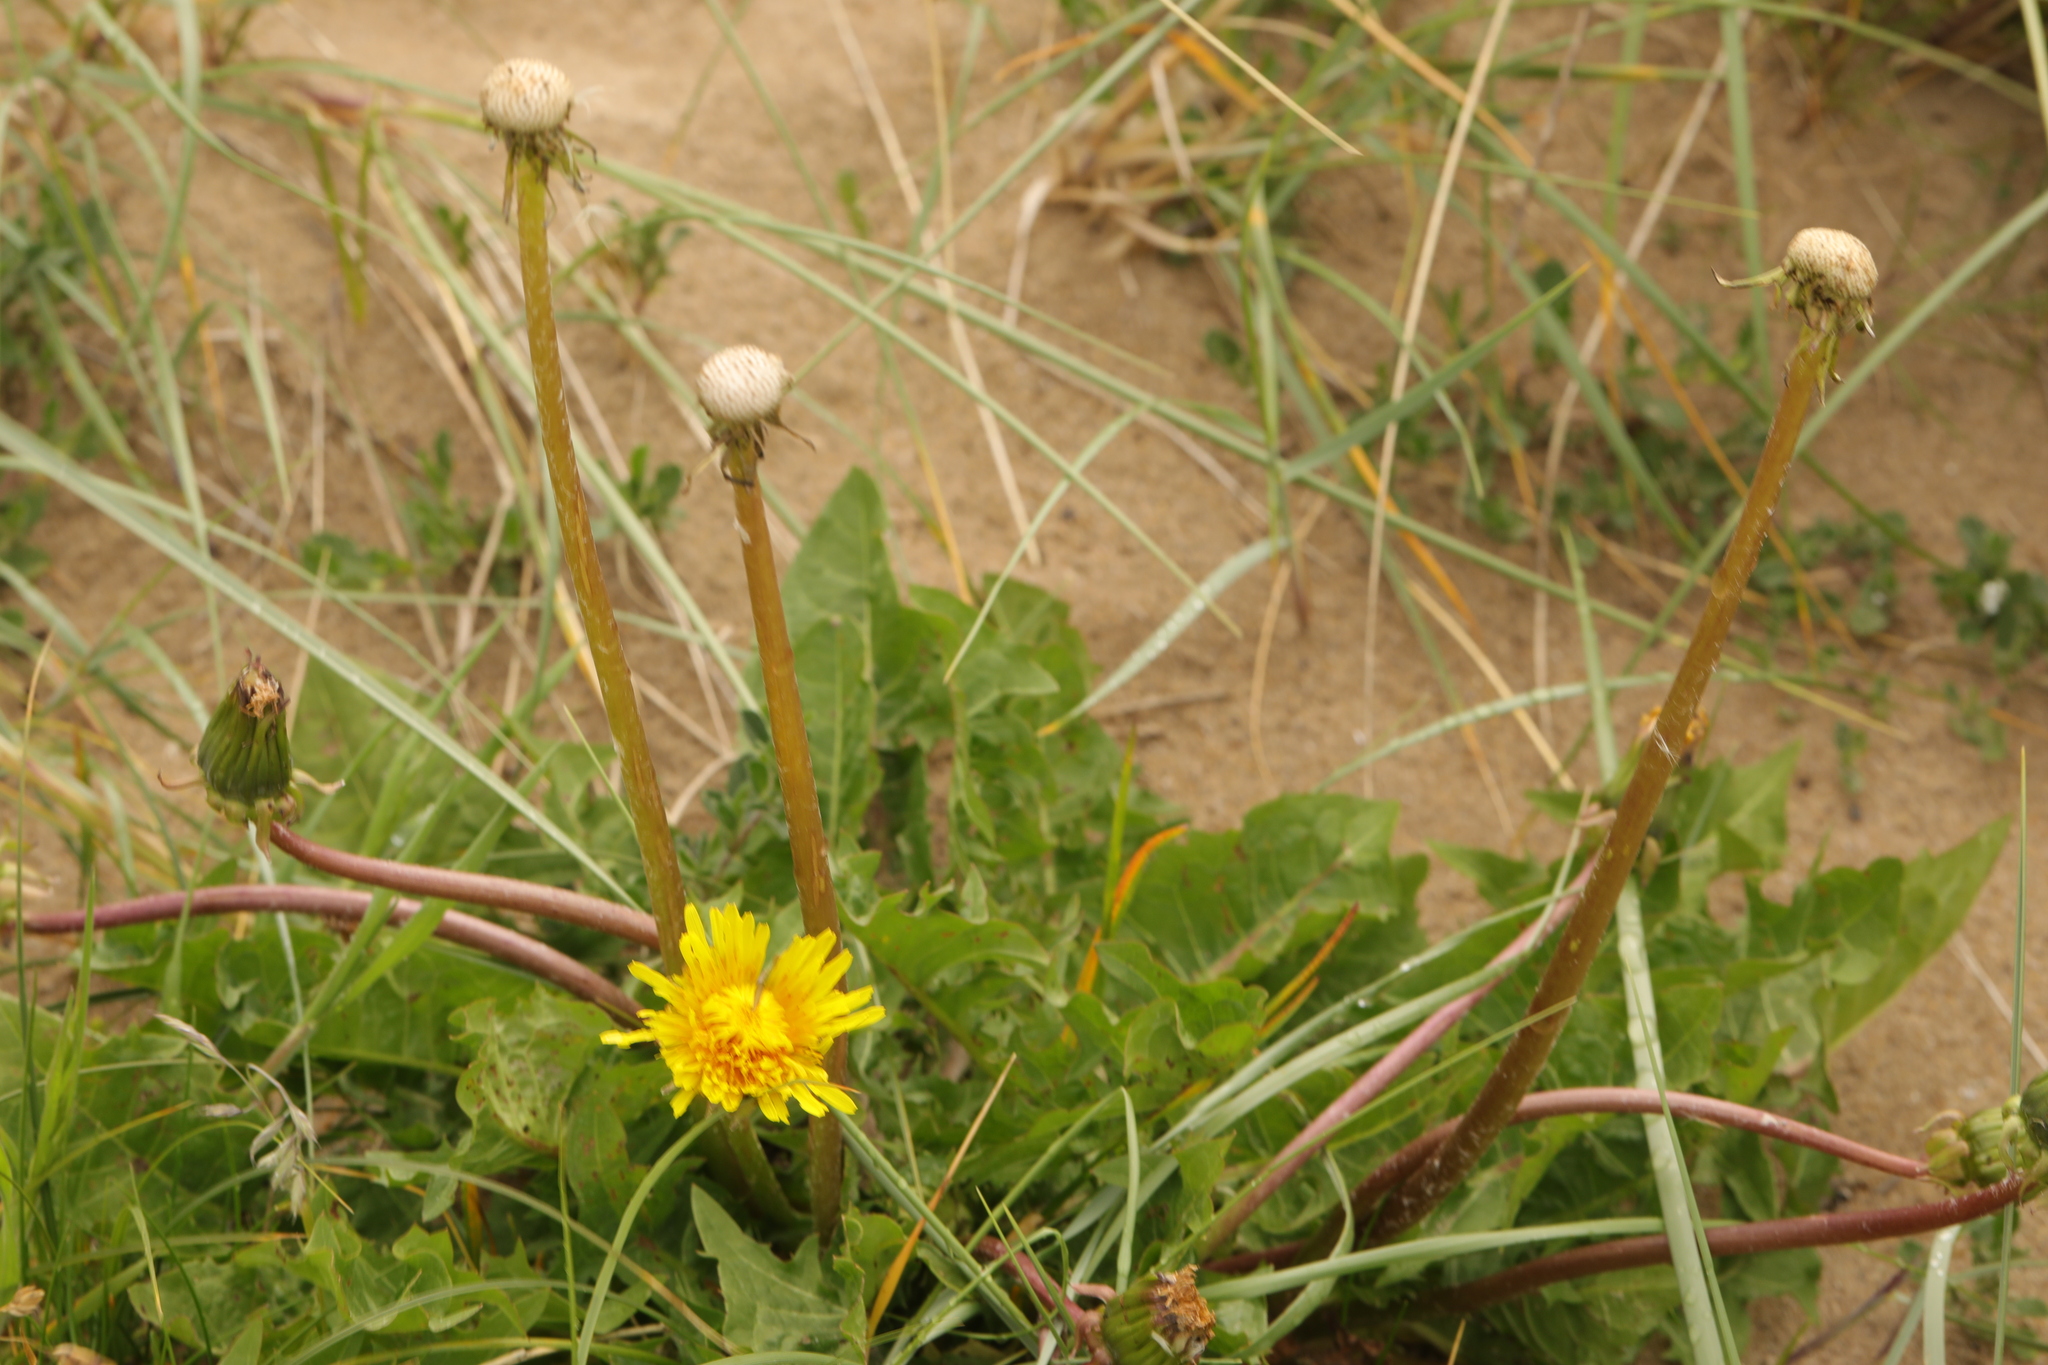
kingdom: Plantae
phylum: Tracheophyta
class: Magnoliopsida
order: Asterales
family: Asteraceae
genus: Taraxacum
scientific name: Taraxacum officinale
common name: Common dandelion
